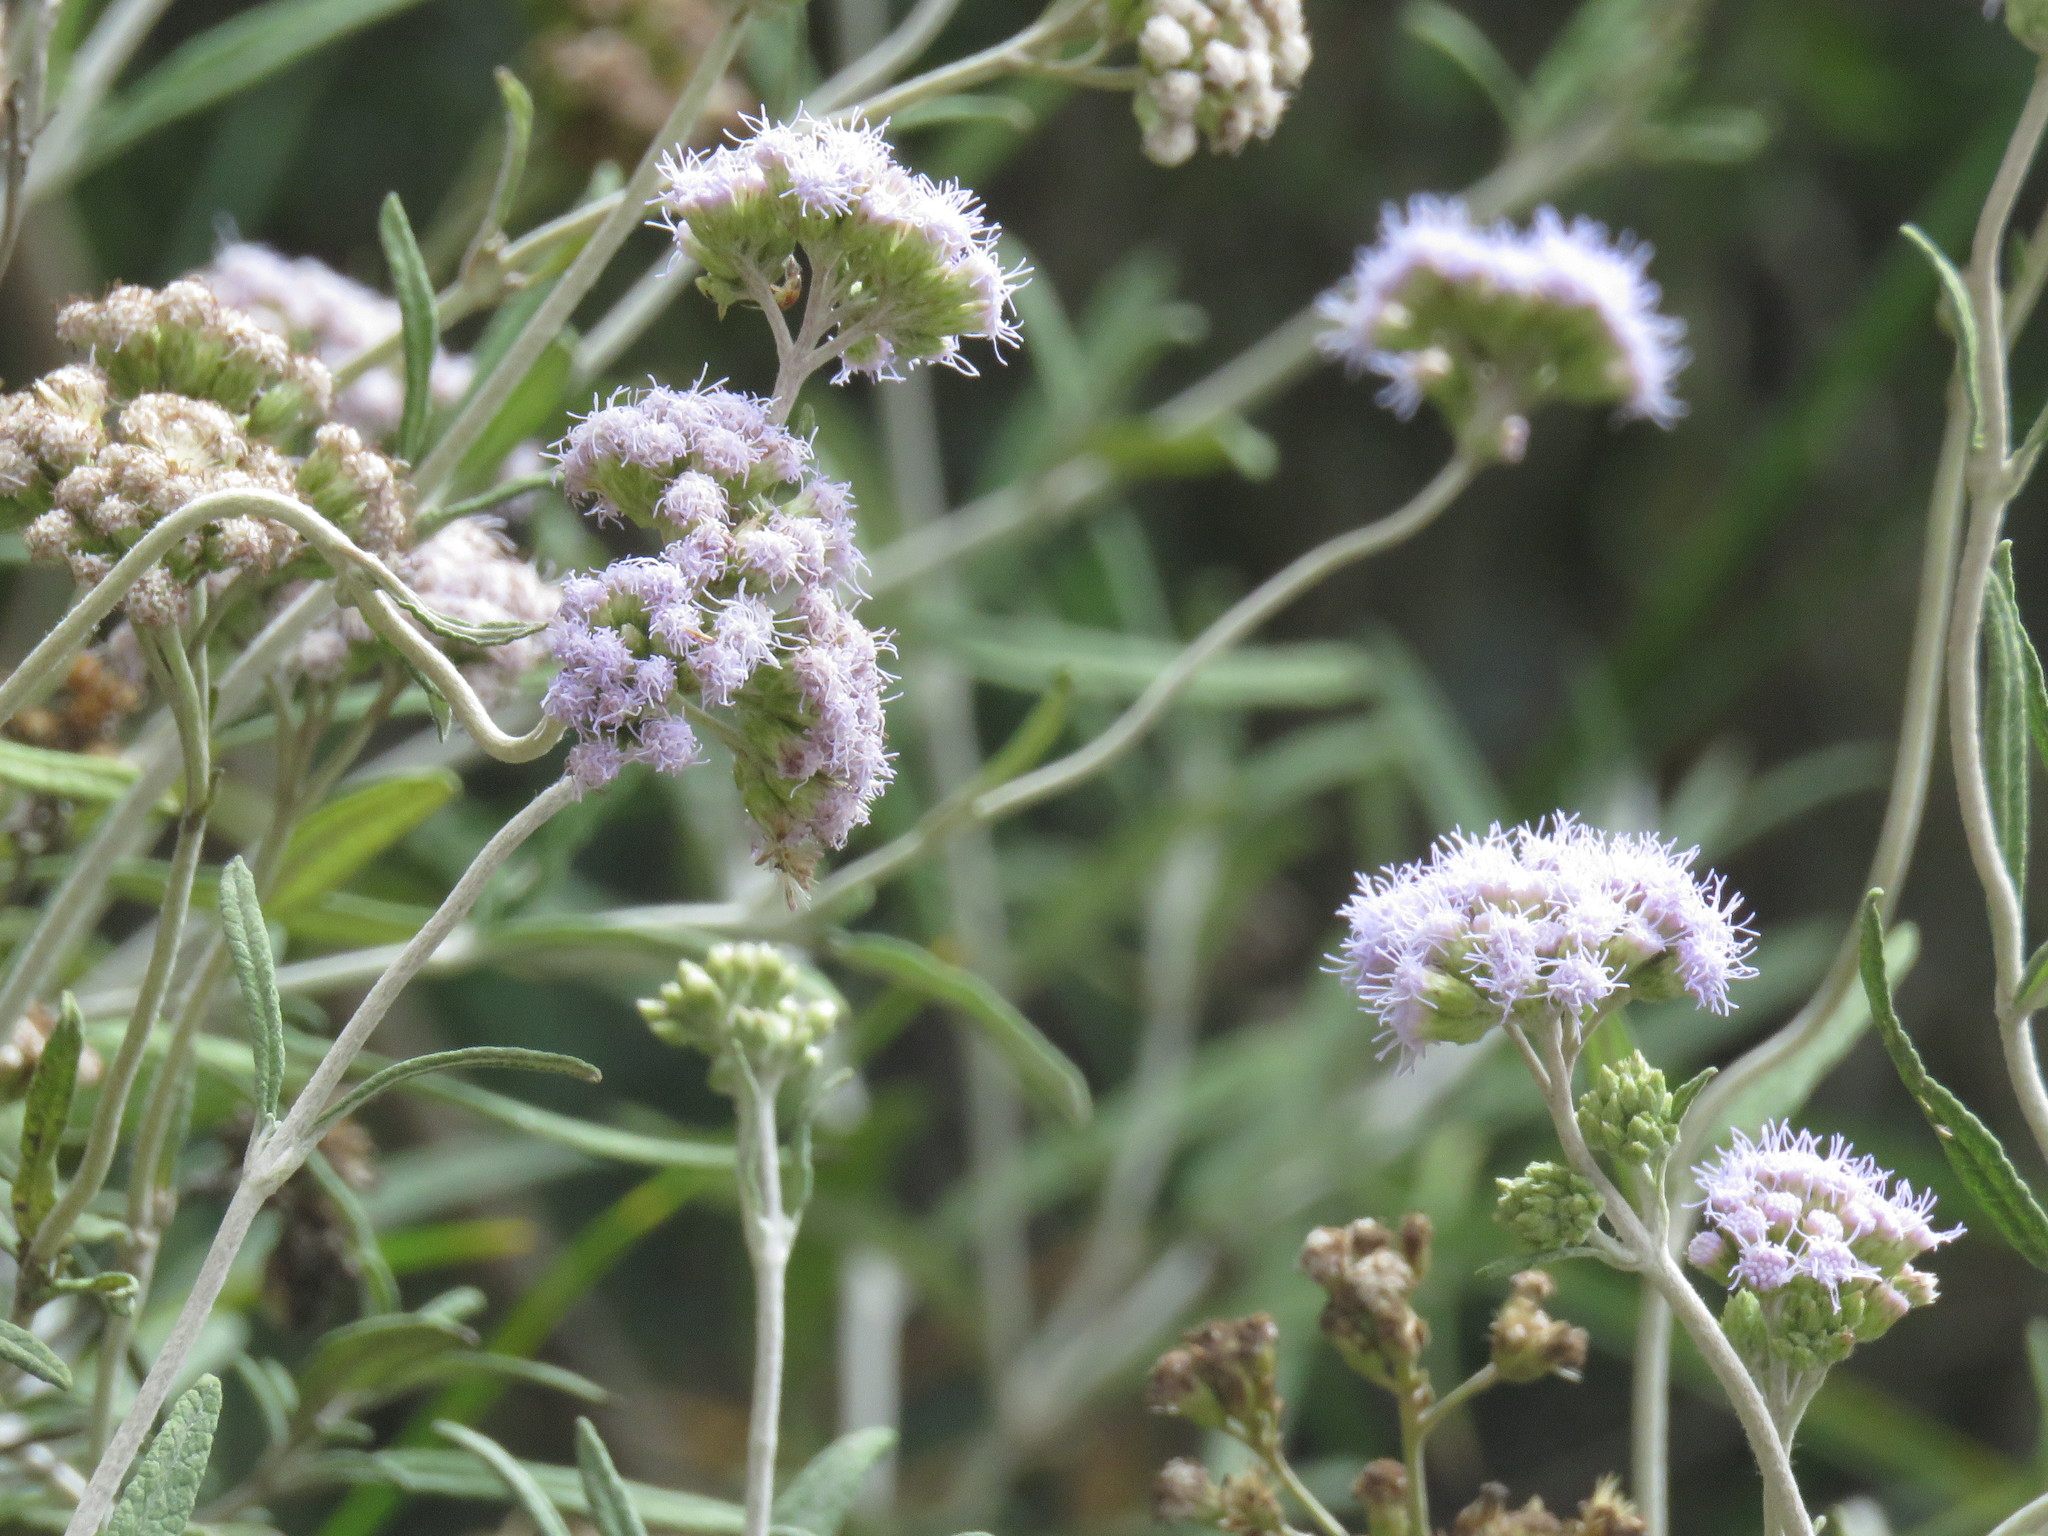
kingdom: Plantae
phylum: Tracheophyta
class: Magnoliopsida
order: Asterales
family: Asteraceae
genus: Lourteigia
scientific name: Lourteigia stoechadifolia
